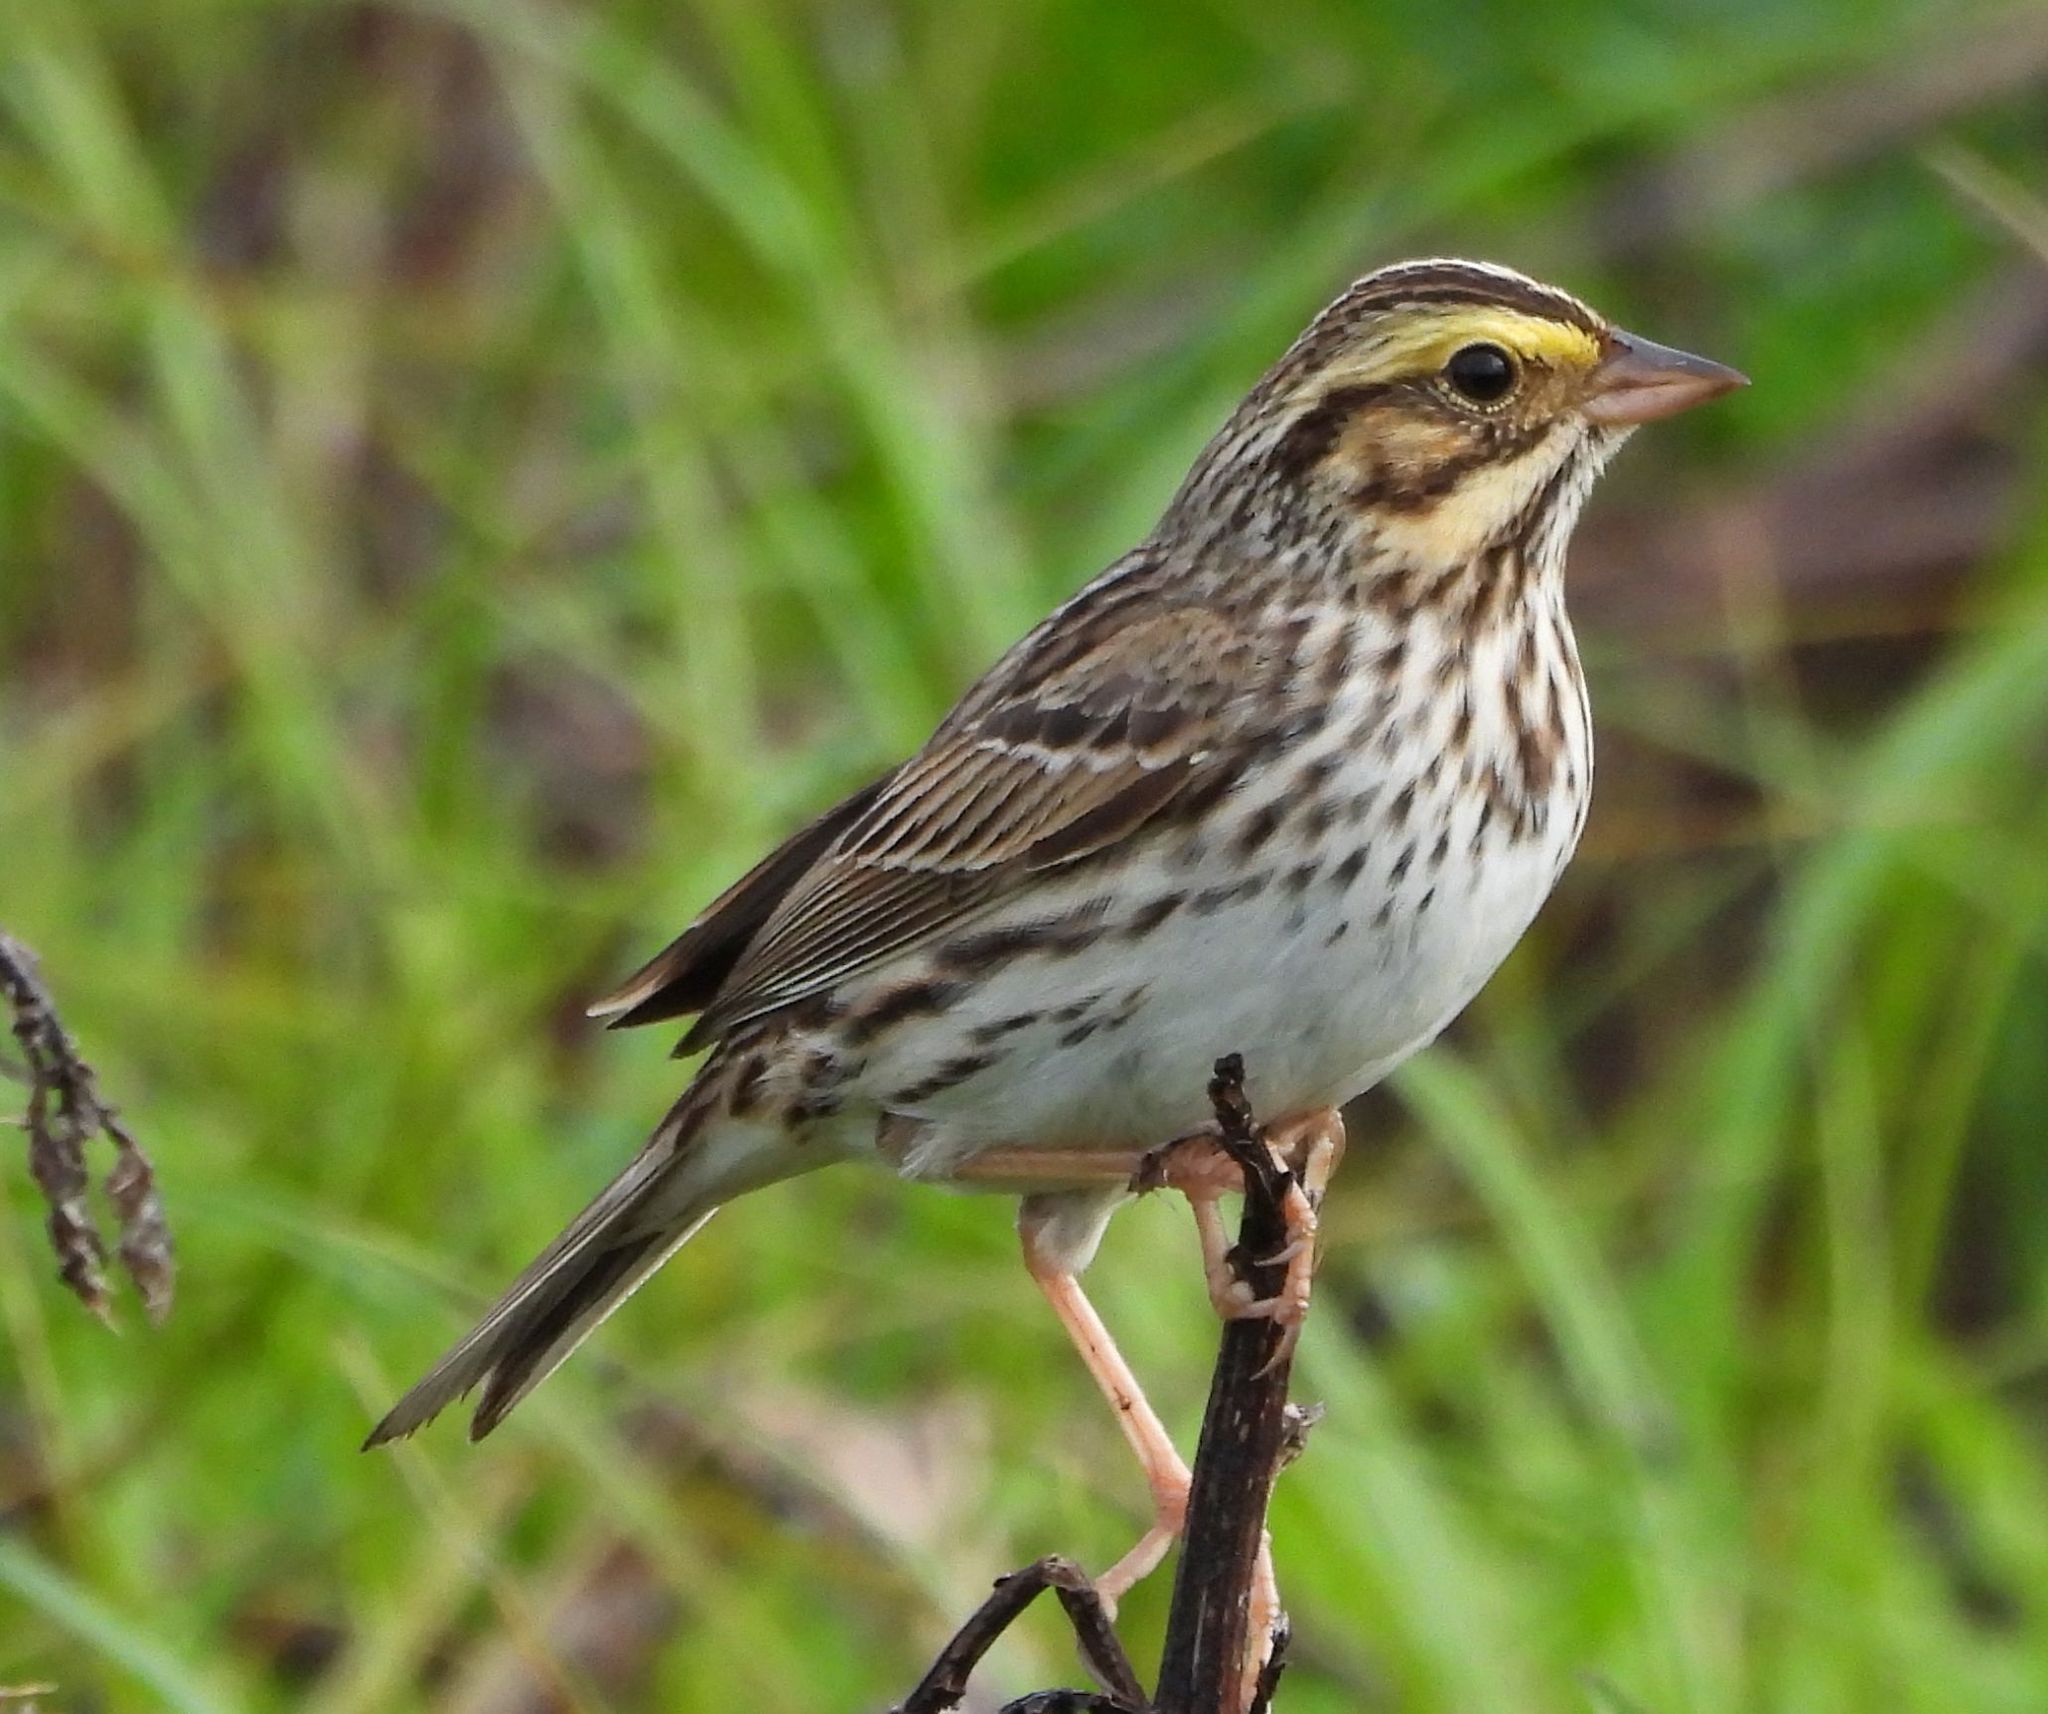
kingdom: Animalia
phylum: Chordata
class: Aves
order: Passeriformes
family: Passerellidae
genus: Passerculus
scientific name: Passerculus sandwichensis
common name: Savannah sparrow
